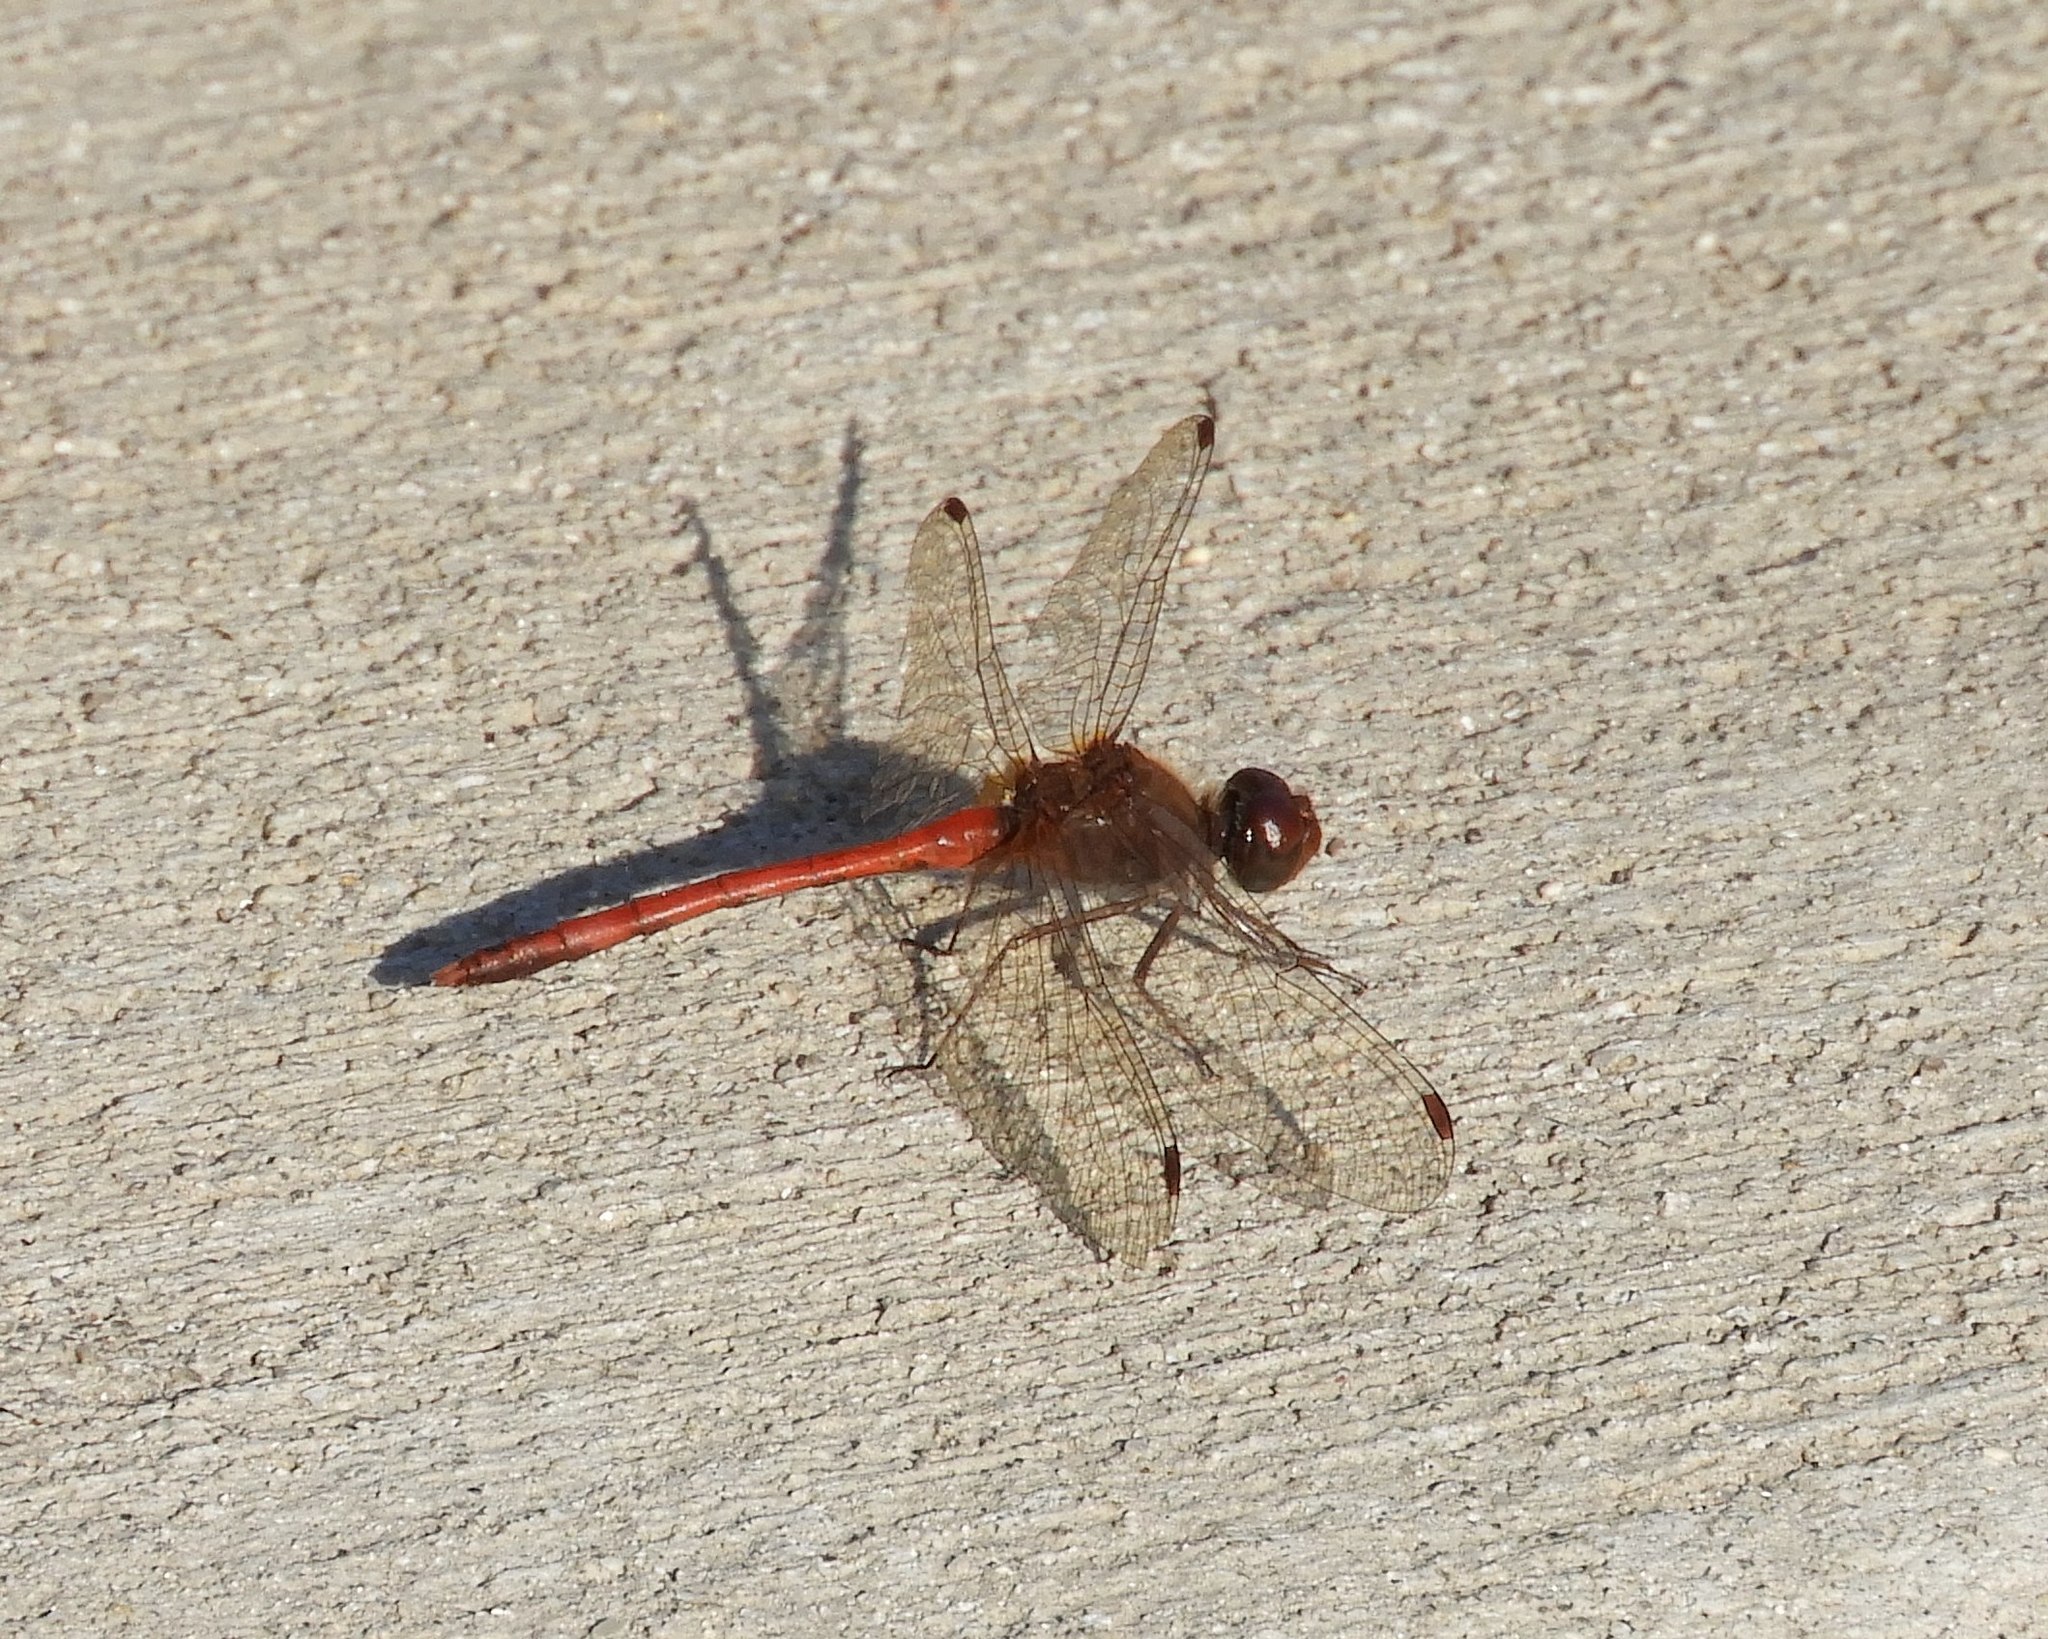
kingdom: Animalia
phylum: Arthropoda
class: Insecta
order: Odonata
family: Libellulidae
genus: Sympetrum
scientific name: Sympetrum vicinum
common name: Autumn meadowhawk
